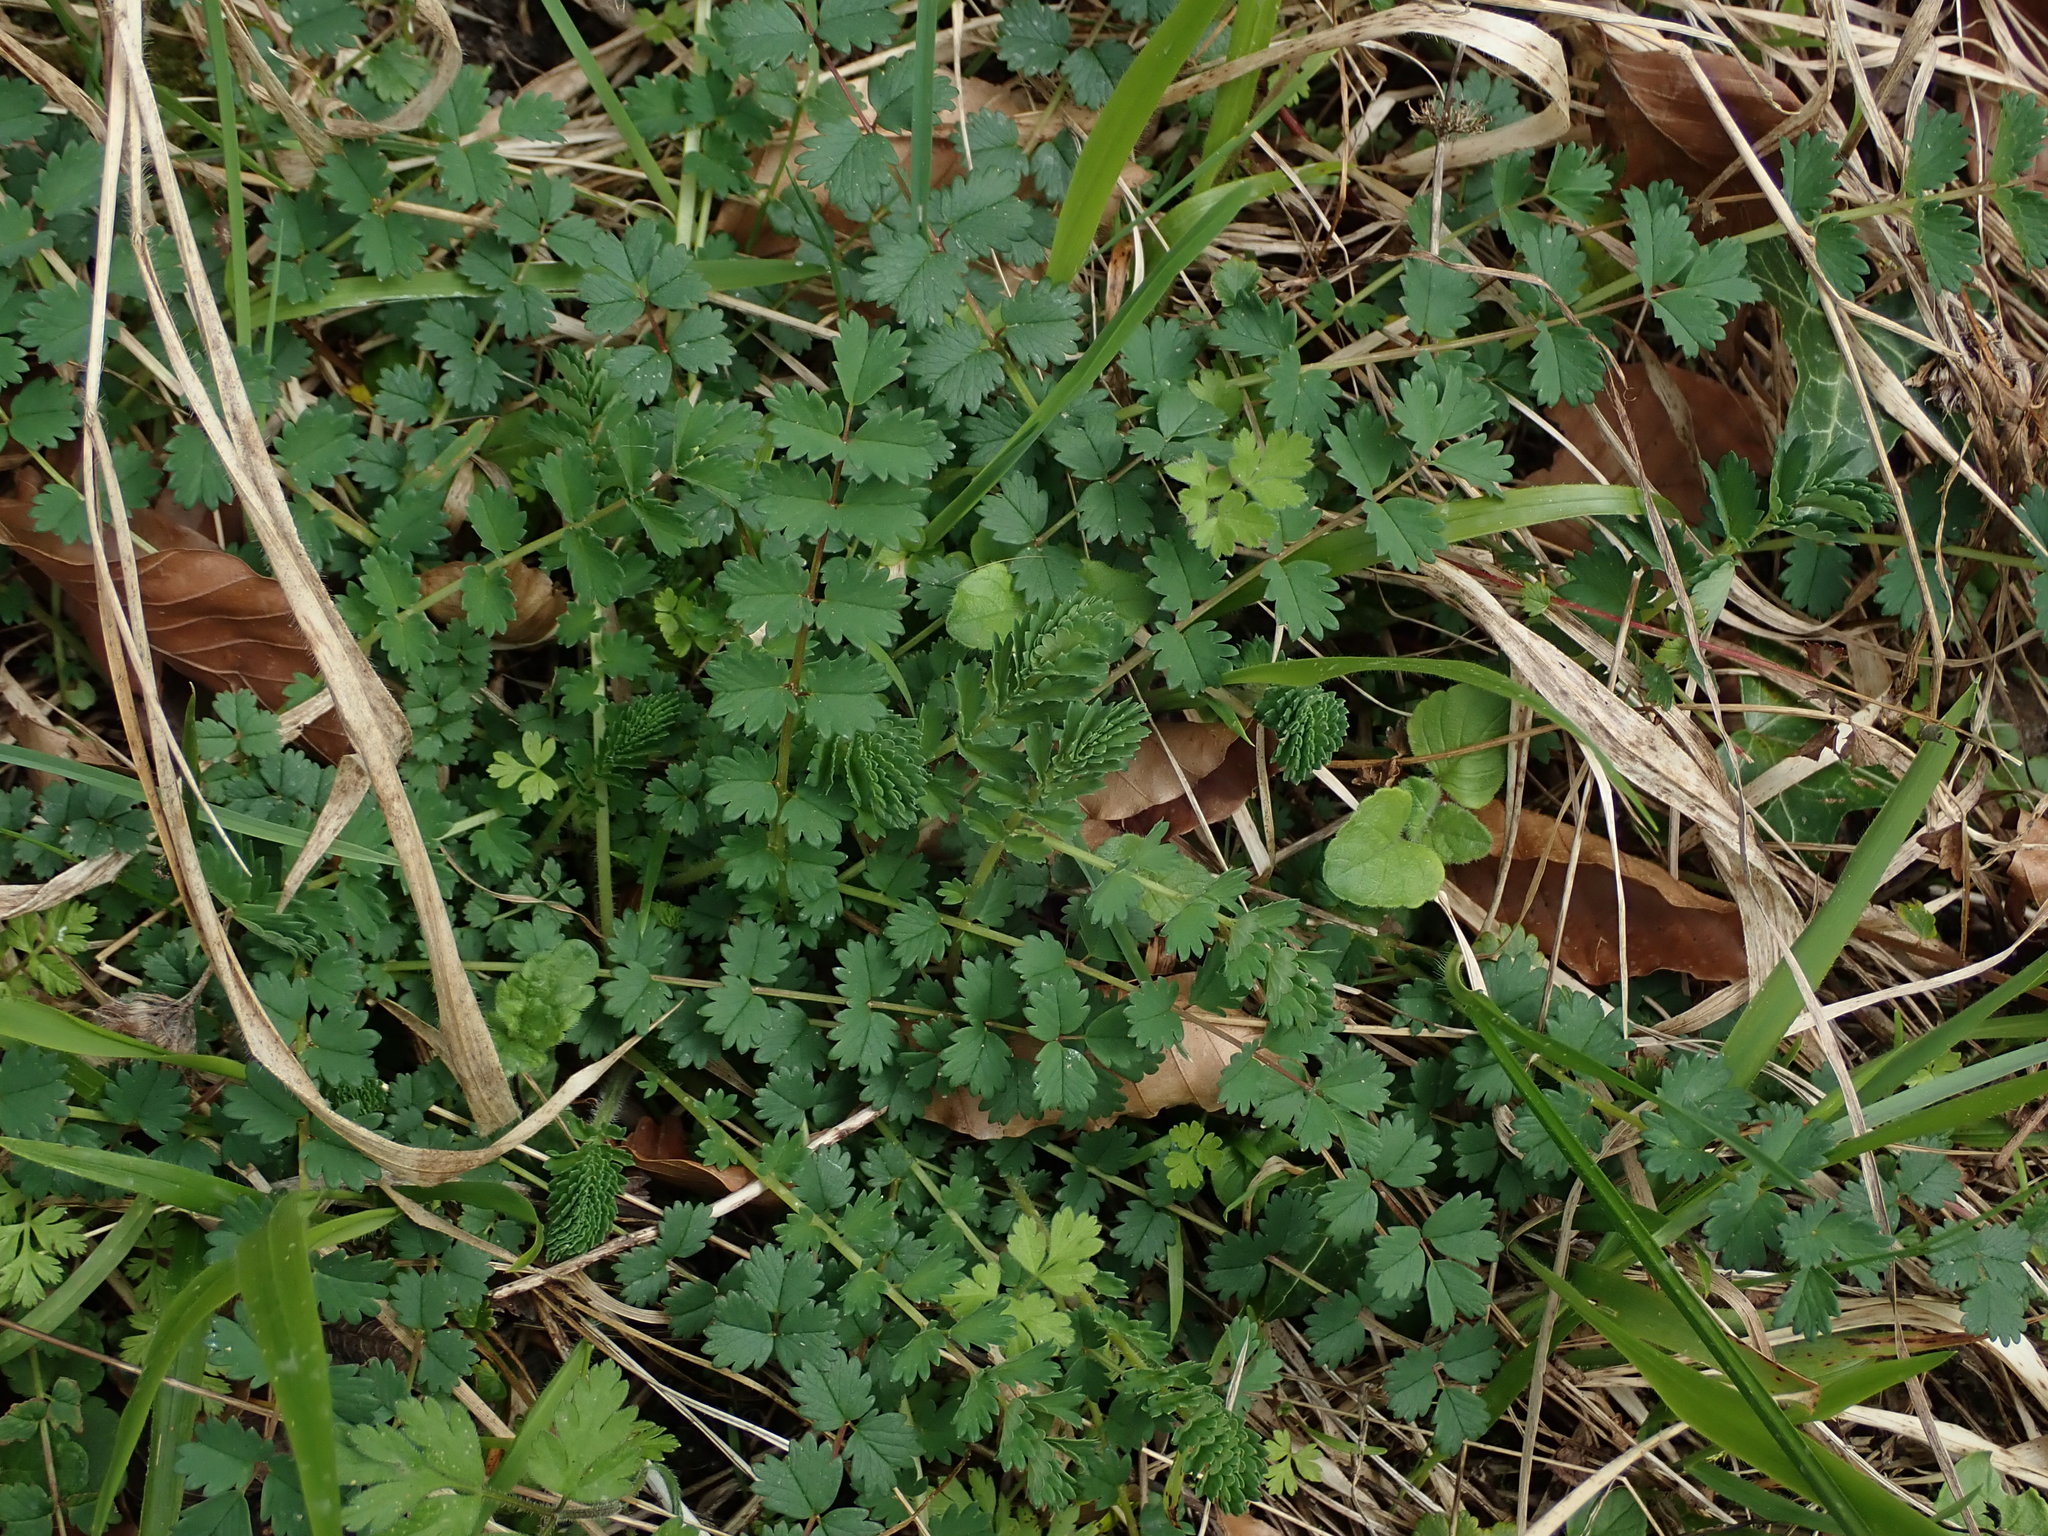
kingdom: Plantae
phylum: Tracheophyta
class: Magnoliopsida
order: Rosales
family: Rosaceae
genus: Poterium
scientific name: Poterium sanguisorba
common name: Salad burnet
